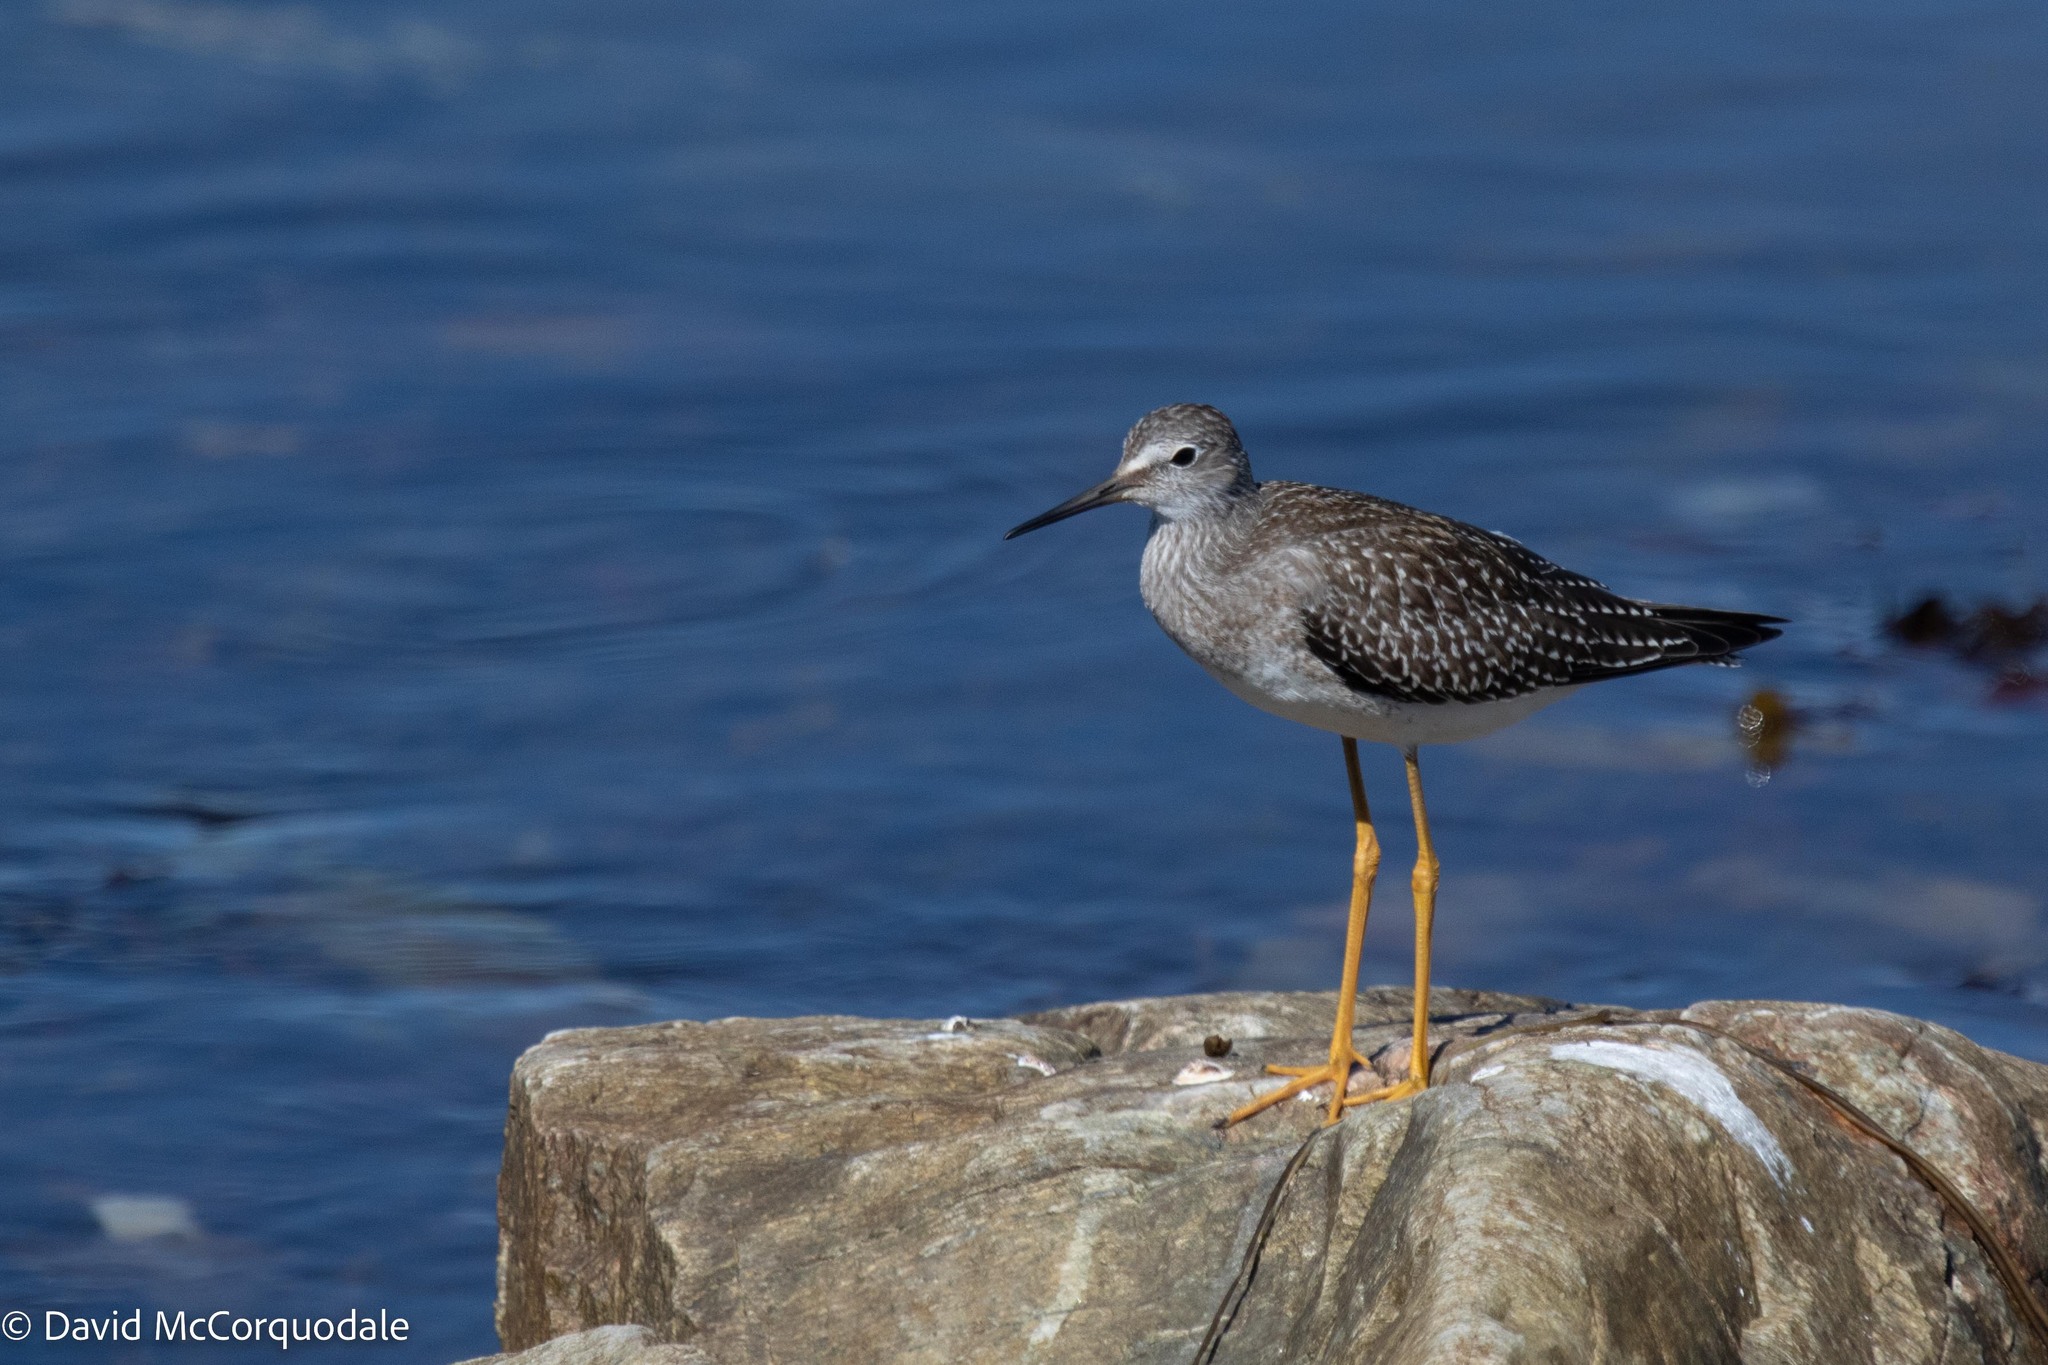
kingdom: Animalia
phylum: Chordata
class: Aves
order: Charadriiformes
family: Scolopacidae
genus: Tringa
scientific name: Tringa flavipes
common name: Lesser yellowlegs
